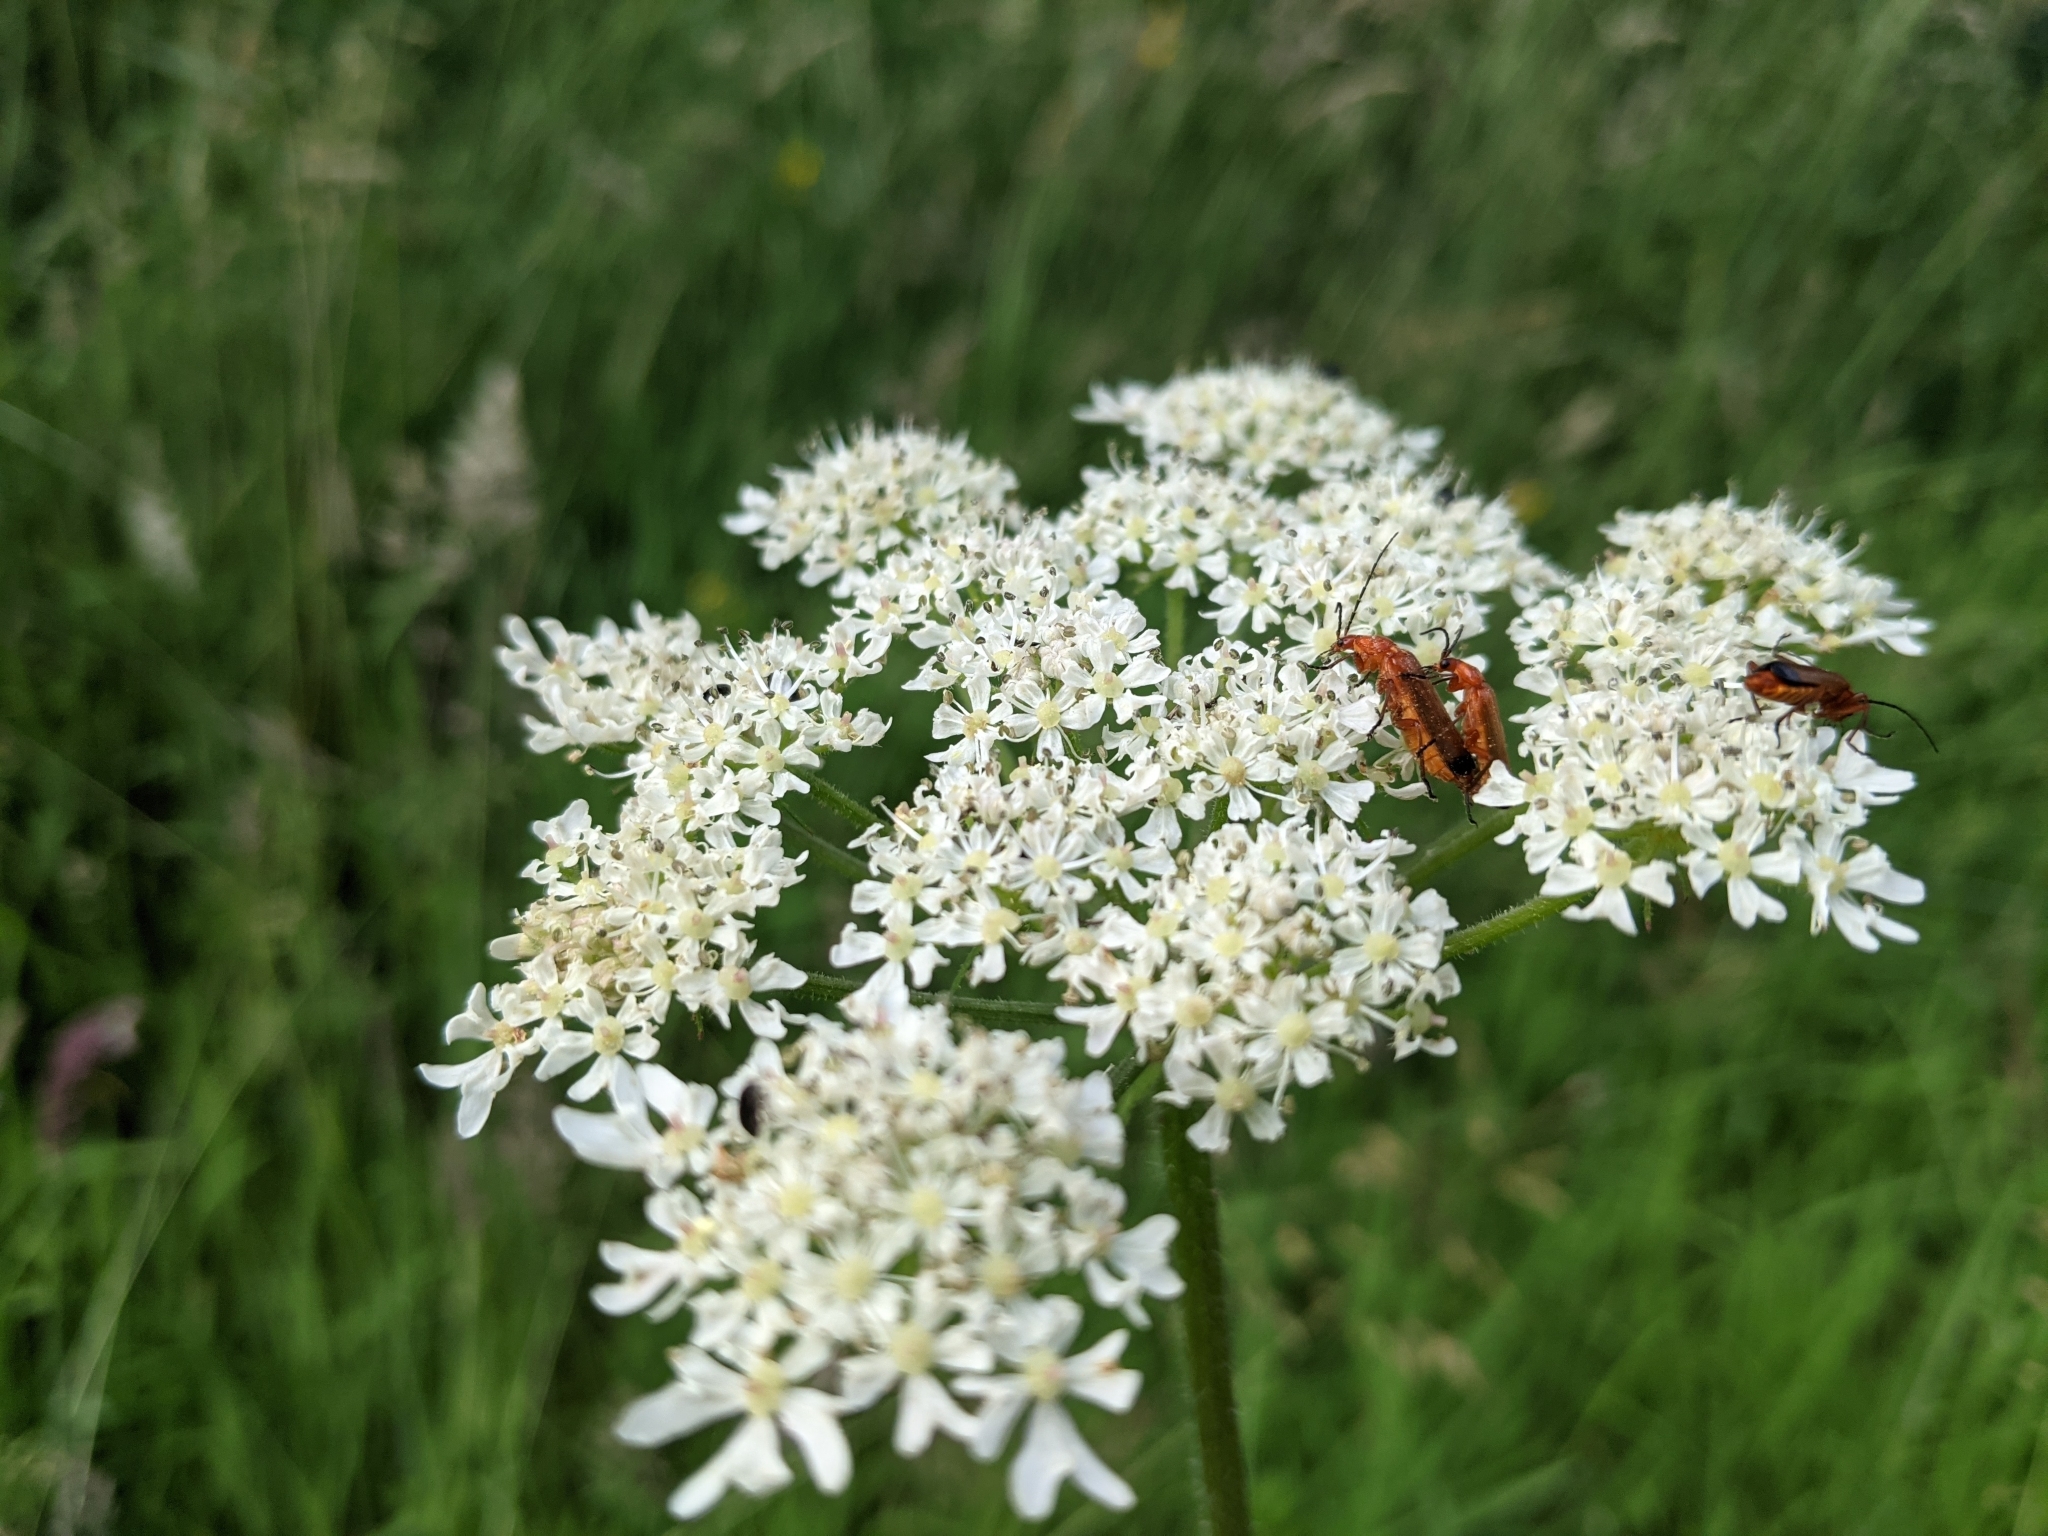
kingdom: Animalia
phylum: Arthropoda
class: Insecta
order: Coleoptera
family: Cantharidae
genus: Rhagonycha
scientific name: Rhagonycha fulva
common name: Common red soldier beetle
